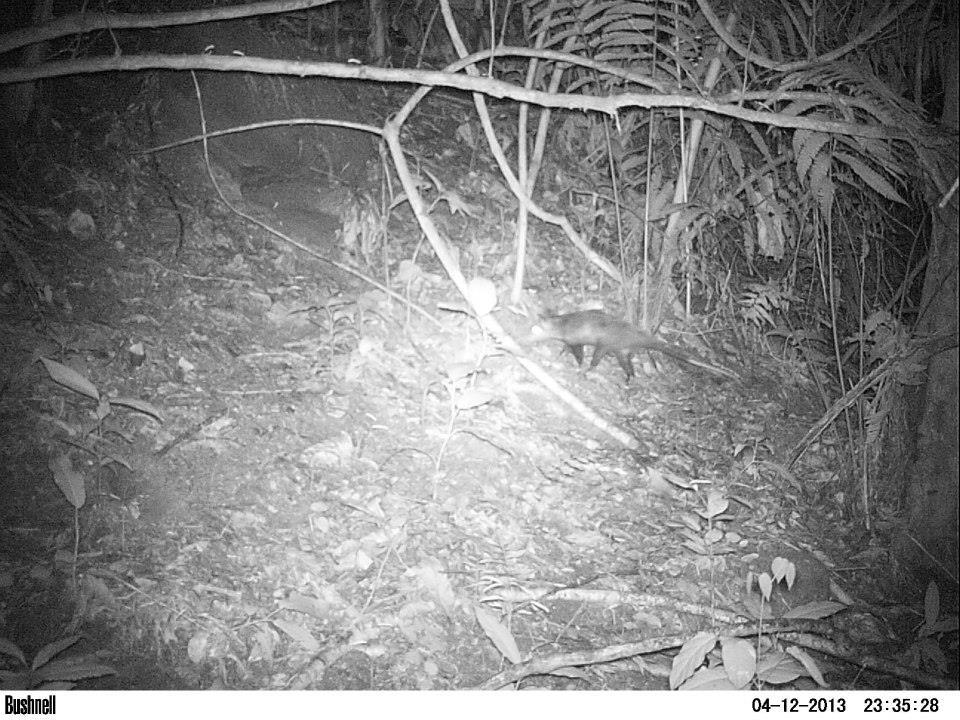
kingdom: Animalia
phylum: Chordata
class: Mammalia
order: Didelphimorphia
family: Didelphidae
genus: Didelphis
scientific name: Didelphis aurita
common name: Big-eared opossum
